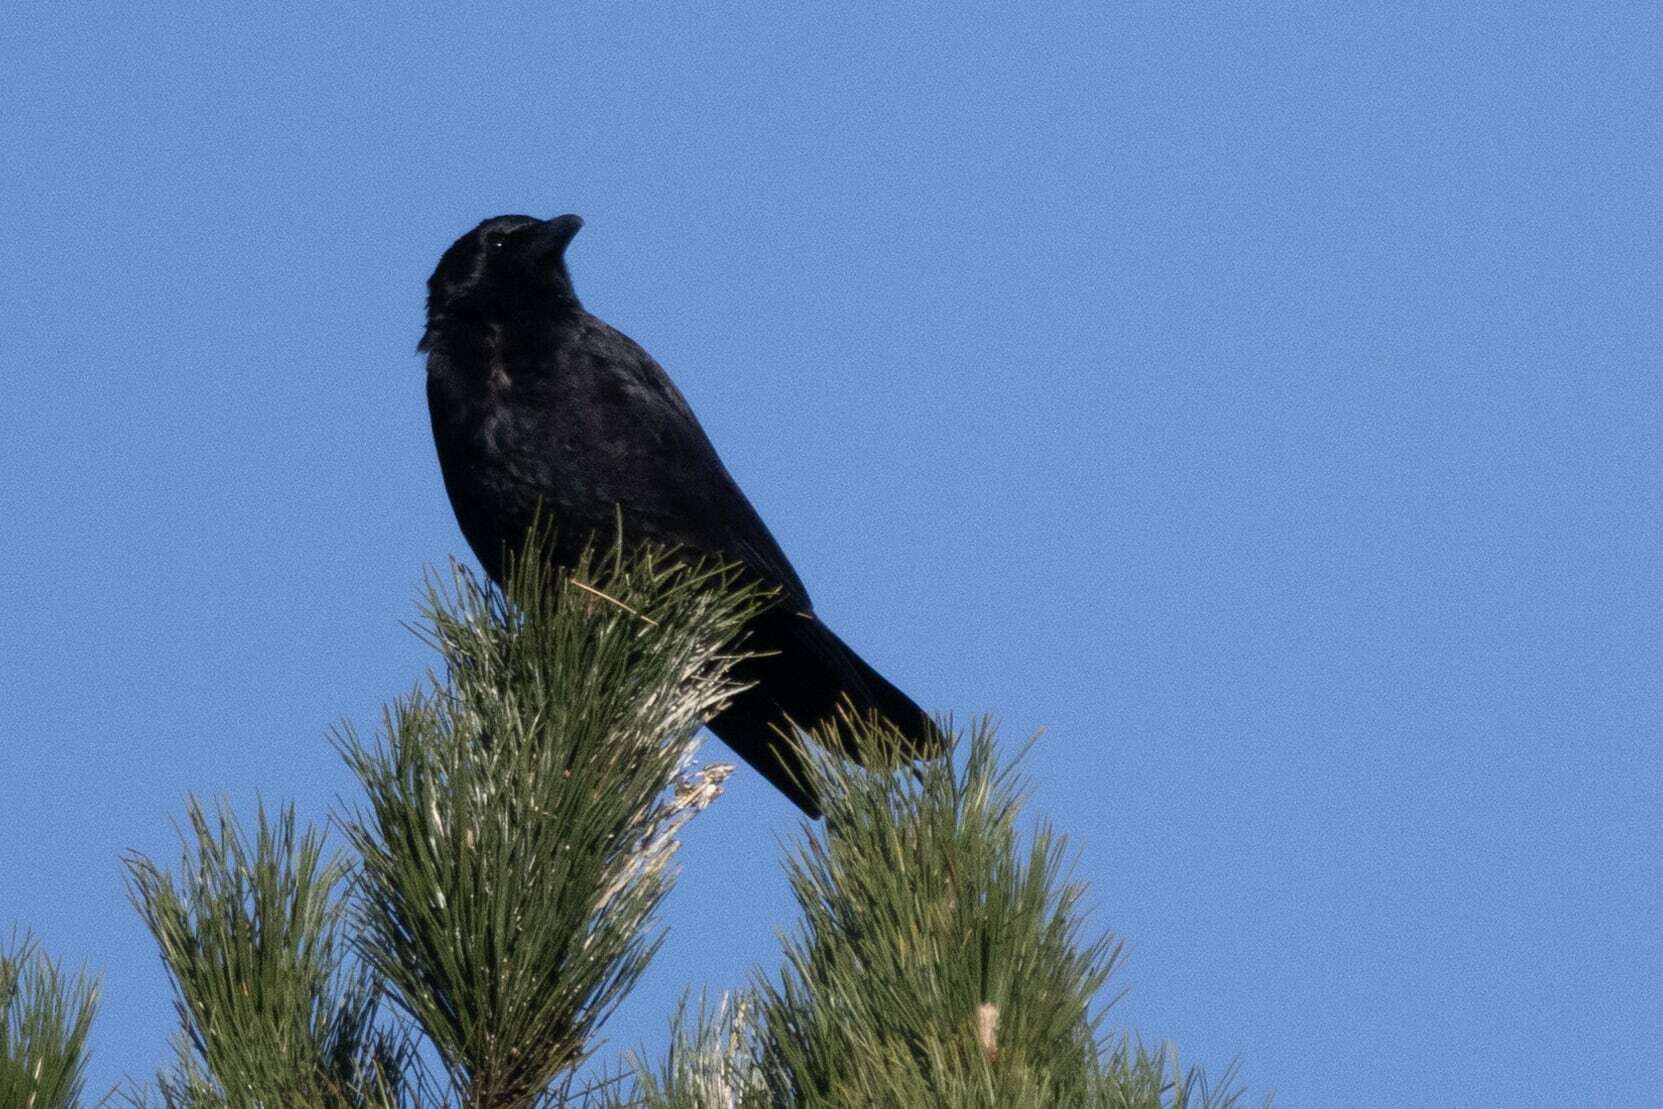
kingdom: Animalia
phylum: Chordata
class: Aves
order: Passeriformes
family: Corvidae
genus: Corvus
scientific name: Corvus corone
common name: Carrion crow
